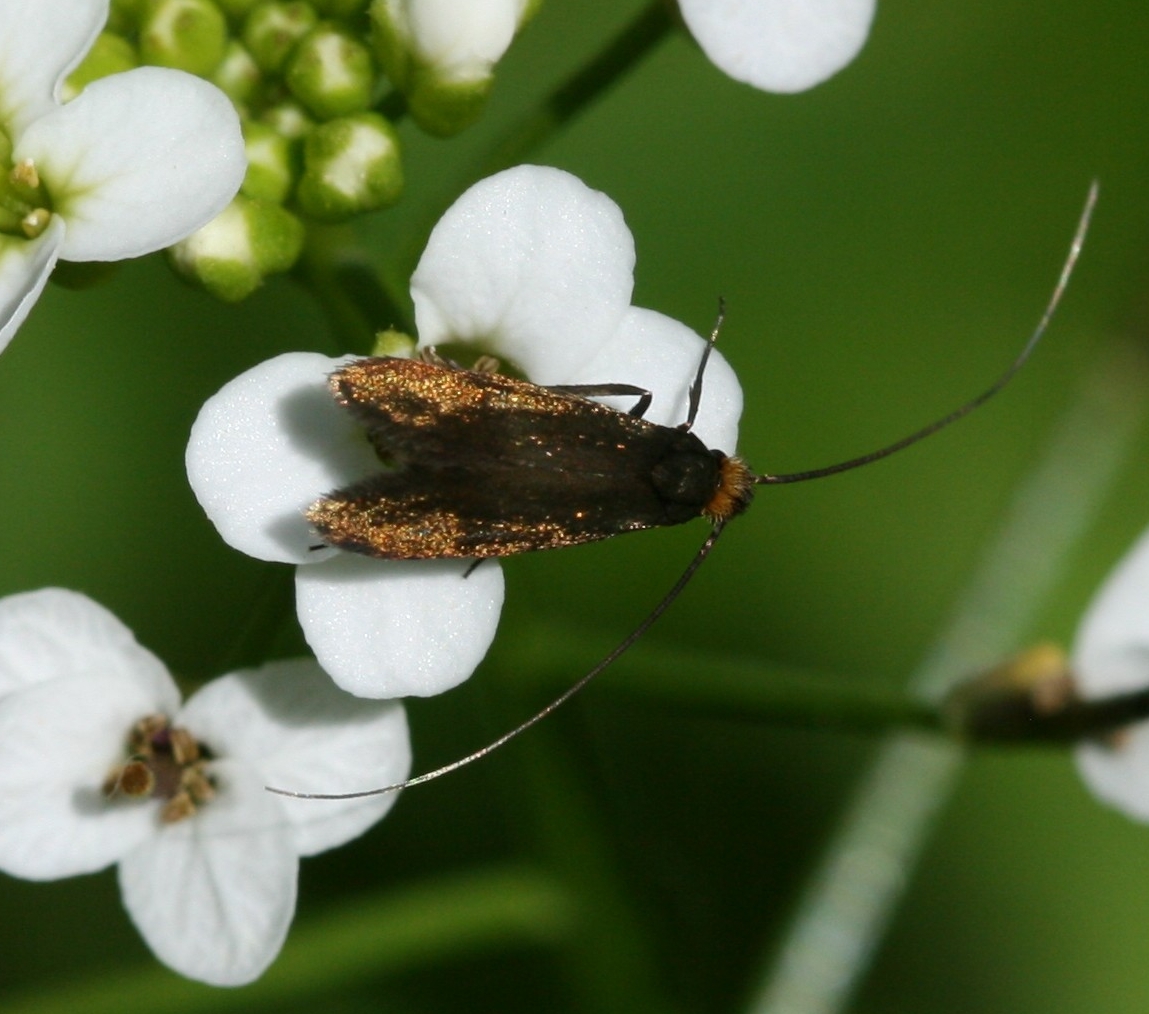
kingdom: Animalia
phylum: Arthropoda
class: Insecta
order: Lepidoptera
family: Adelidae
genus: Cauchas
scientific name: Cauchas rufimitrella
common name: Meadow long-horn
